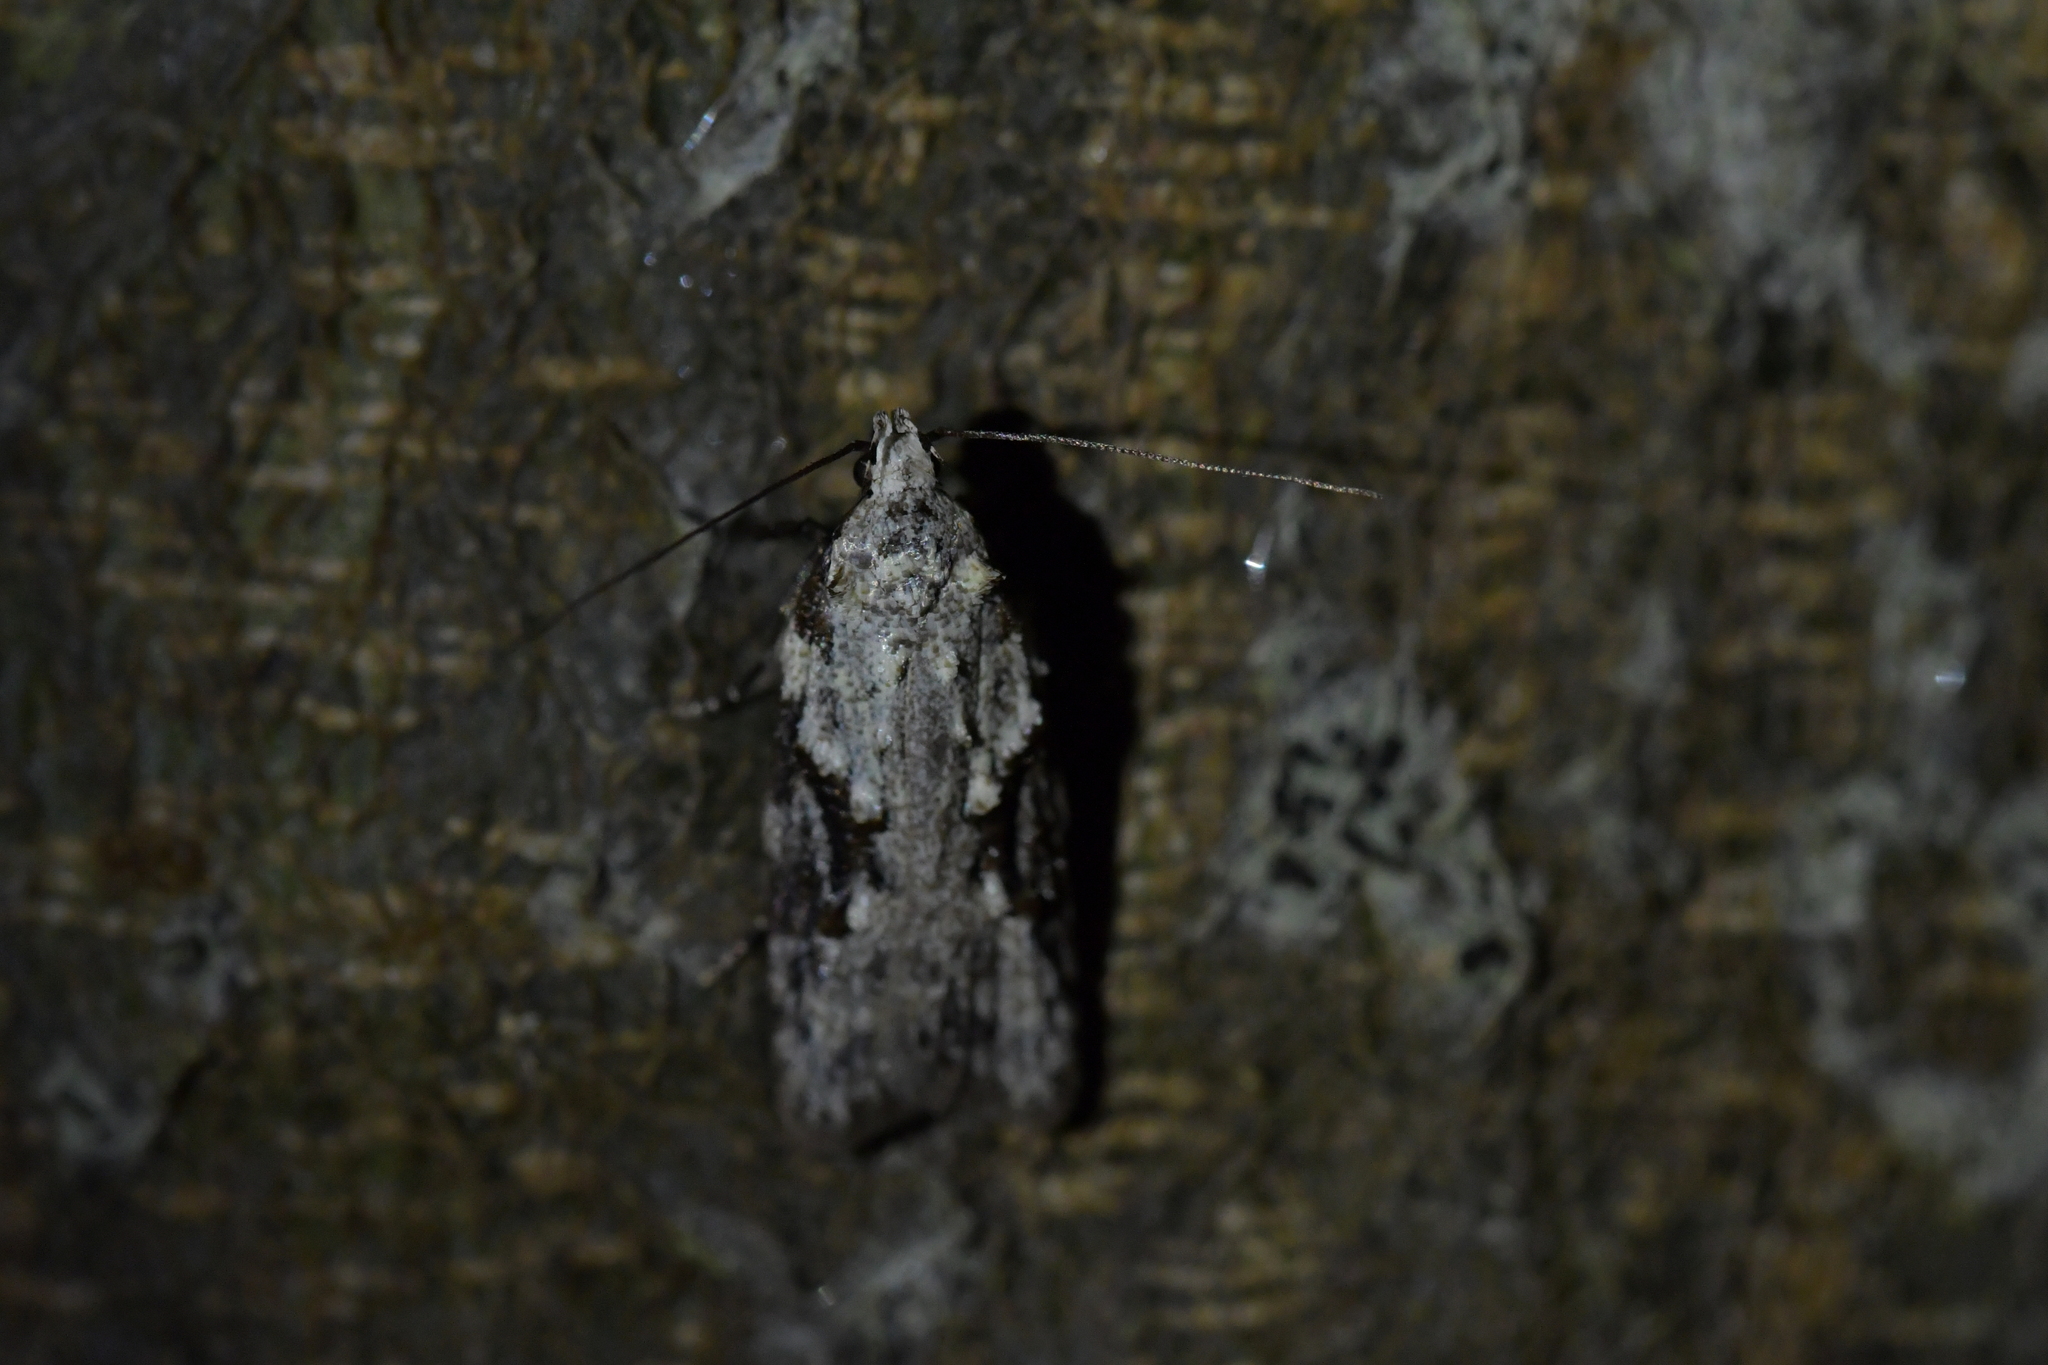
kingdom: Animalia
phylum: Arthropoda
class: Insecta
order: Lepidoptera
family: Oecophoridae
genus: Izatha
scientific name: Izatha mesoschista
